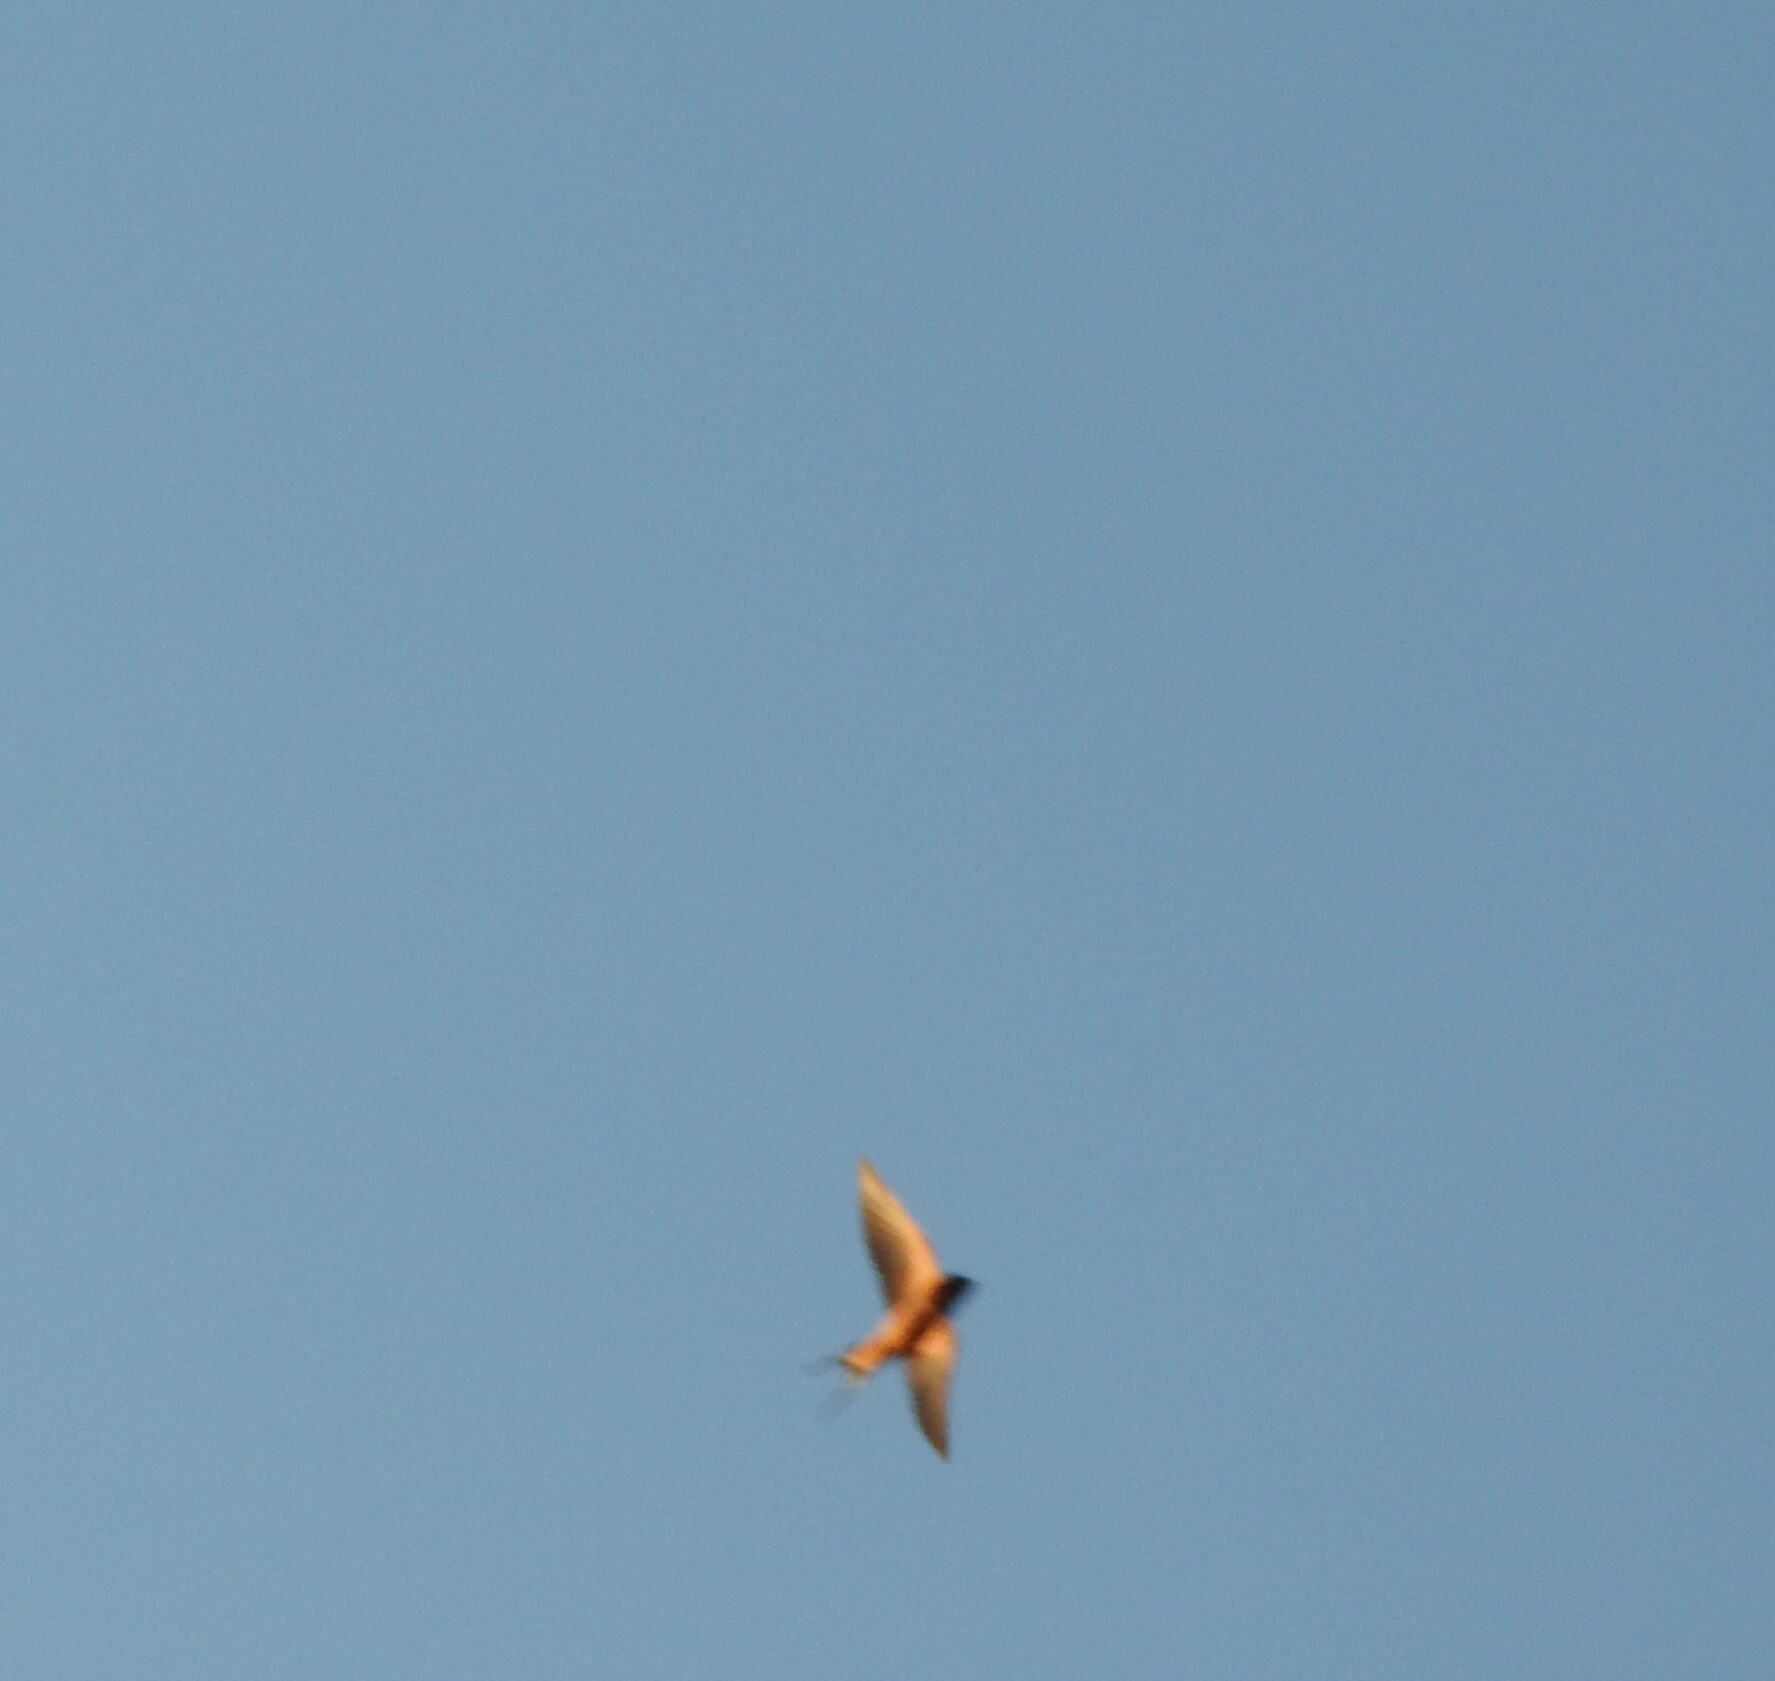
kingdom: Animalia
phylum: Chordata
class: Aves
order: Passeriformes
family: Hirundinidae
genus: Hirundo
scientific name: Hirundo rustica
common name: Barn swallow
